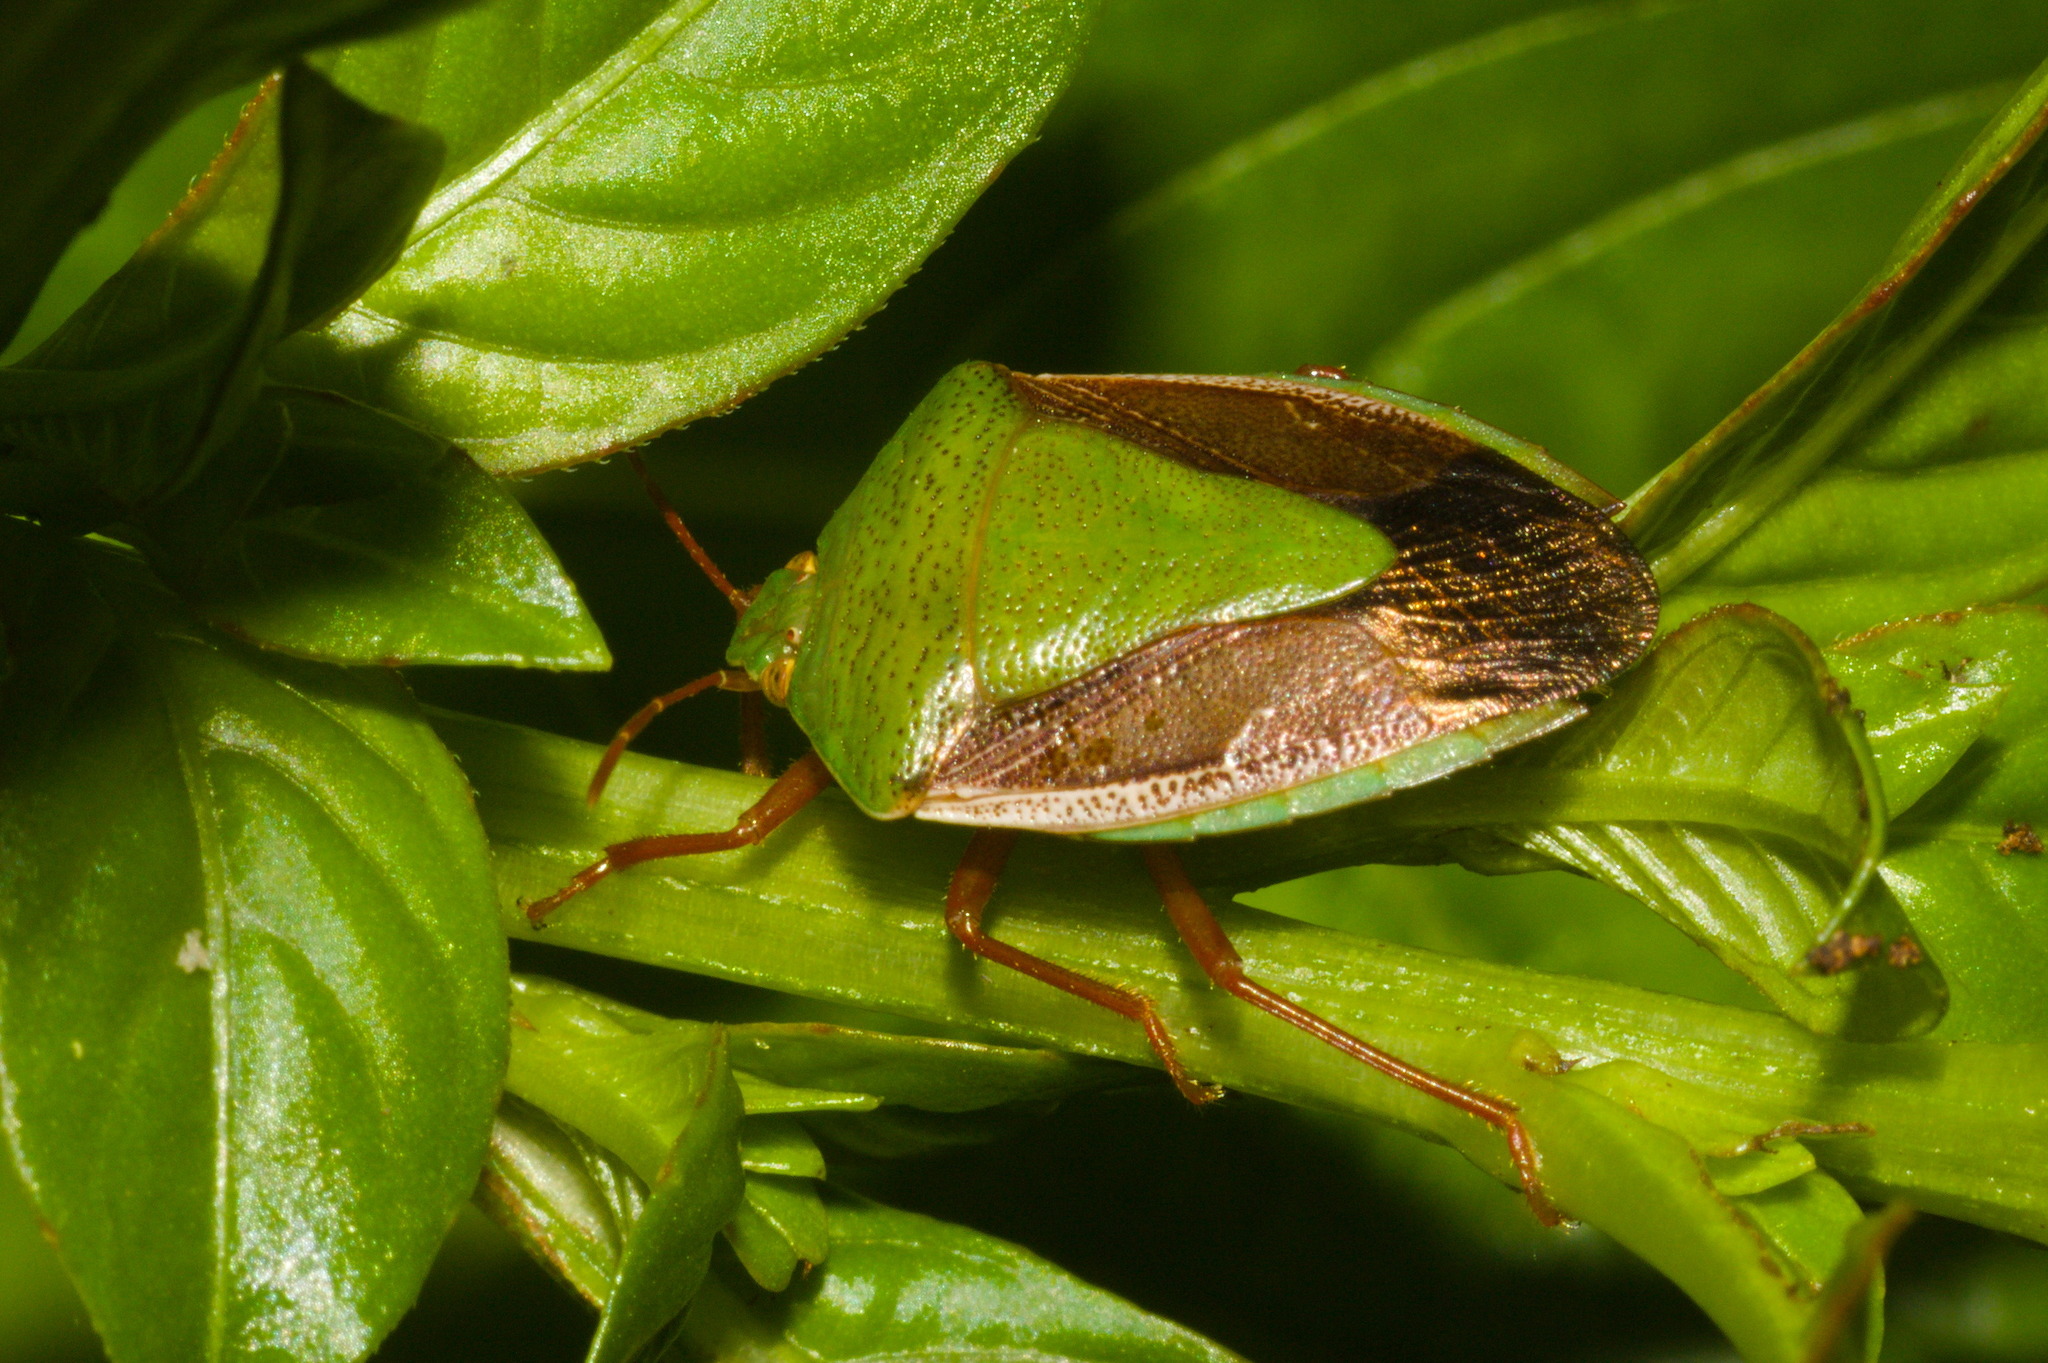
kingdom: Animalia
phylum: Arthropoda
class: Insecta
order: Hemiptera
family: Pentatomidae
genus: Edessa
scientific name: Edessa meditabunda
